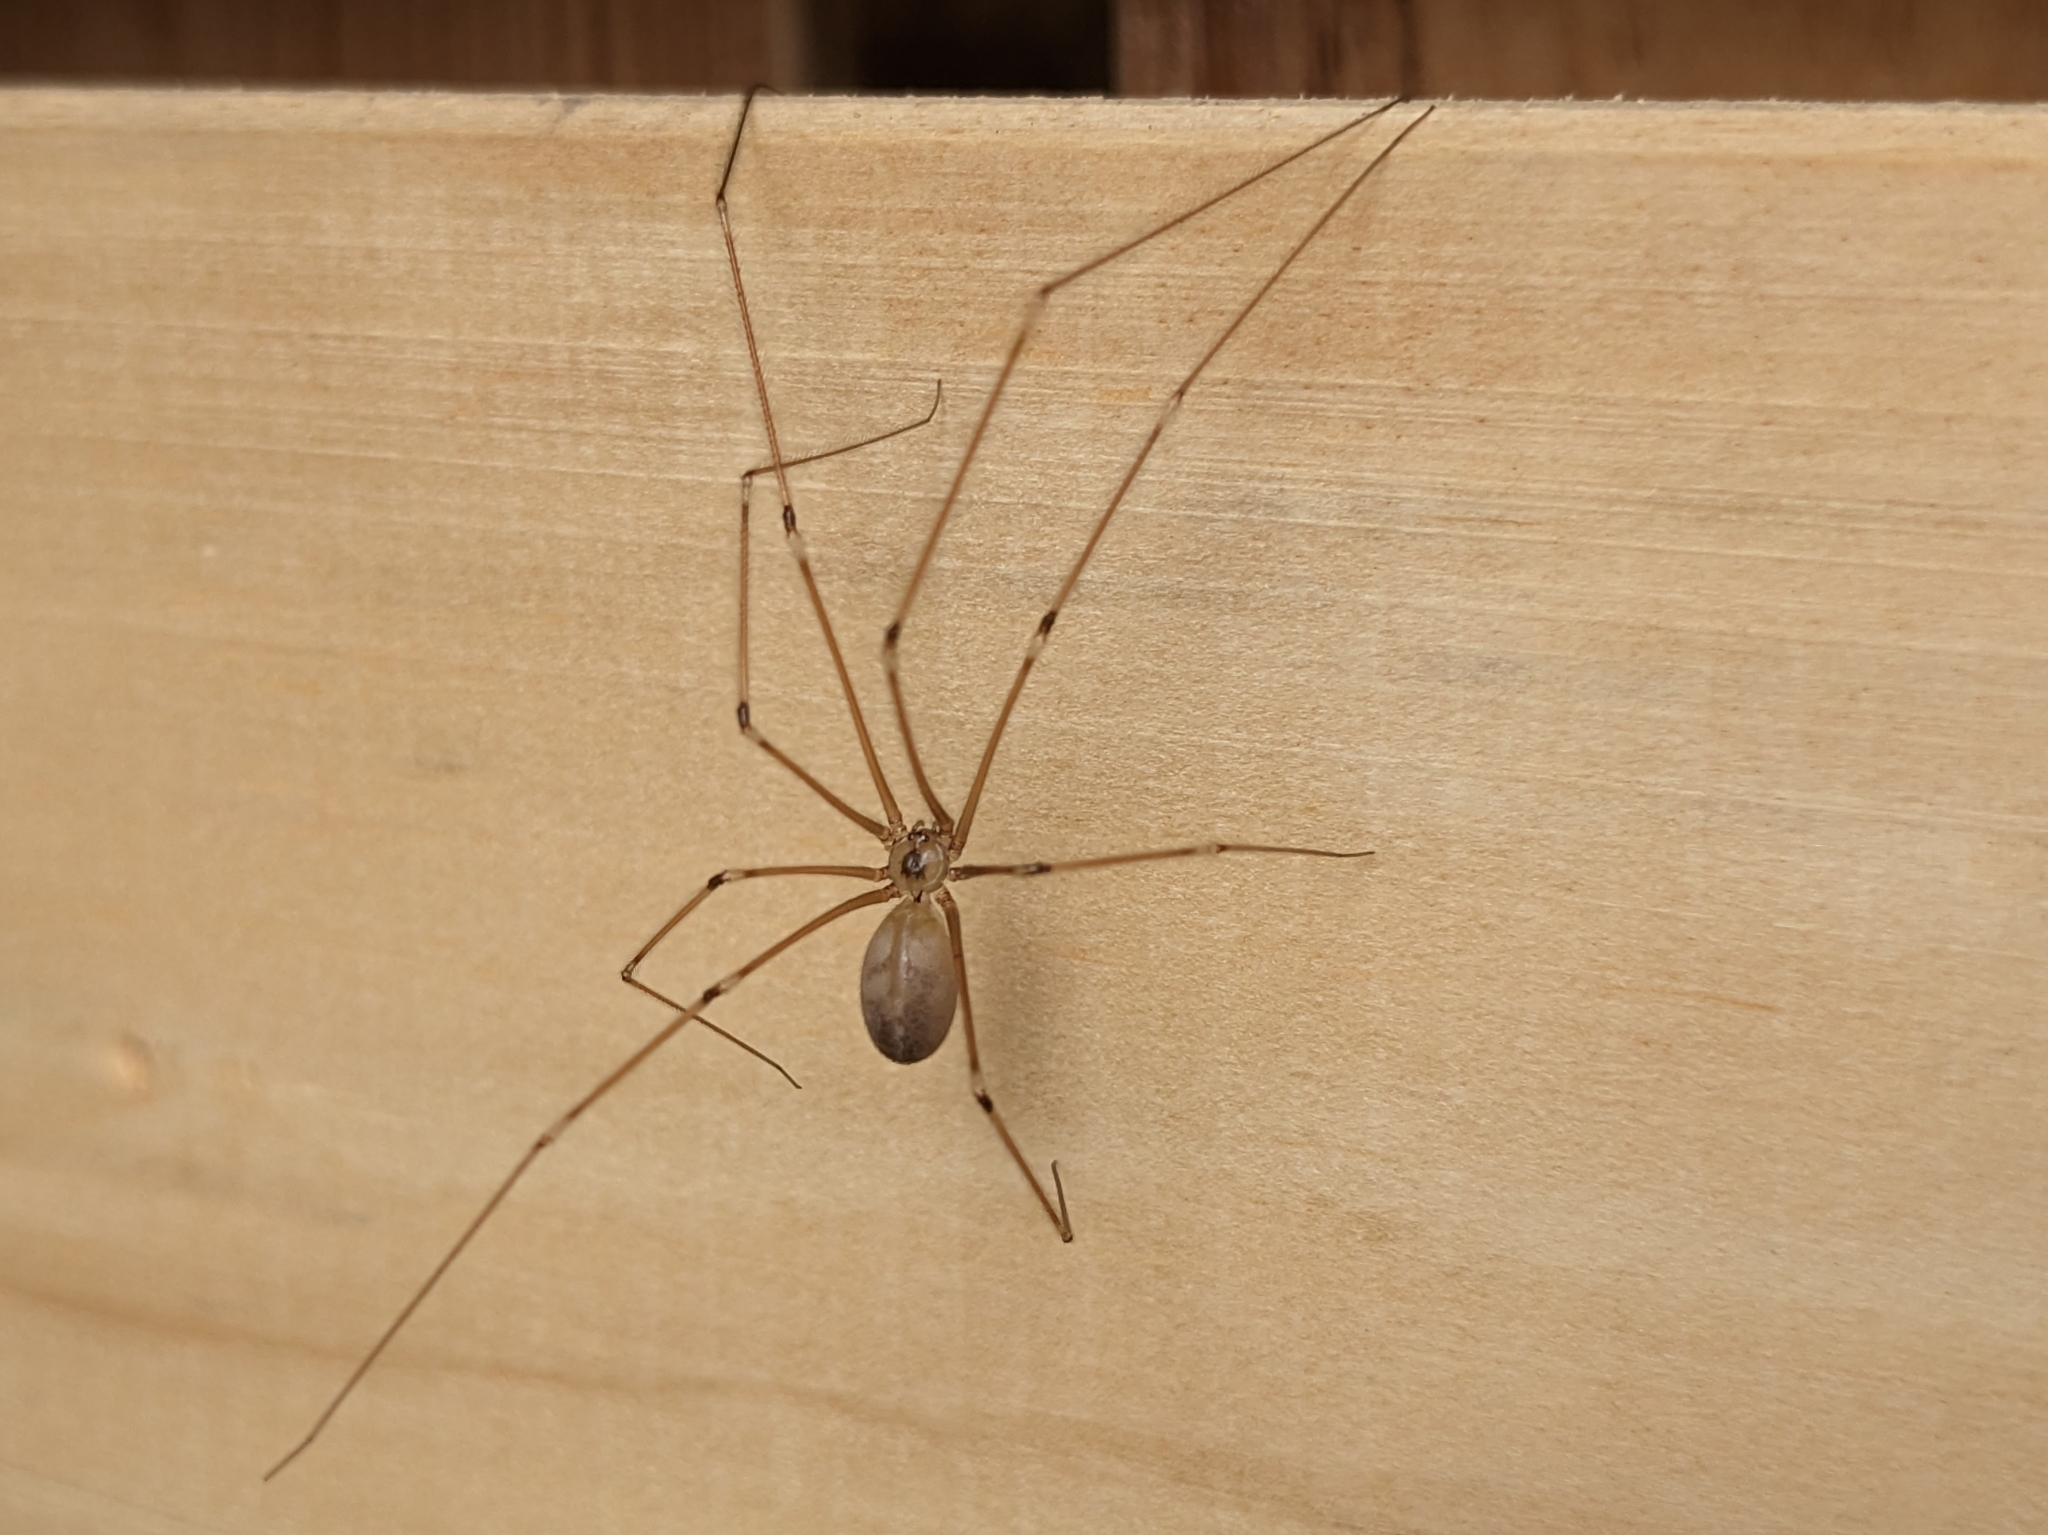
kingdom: Animalia
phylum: Arthropoda
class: Arachnida
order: Araneae
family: Pholcidae
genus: Pholcus
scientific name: Pholcus phalangioides
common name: Longbodied cellar spider
